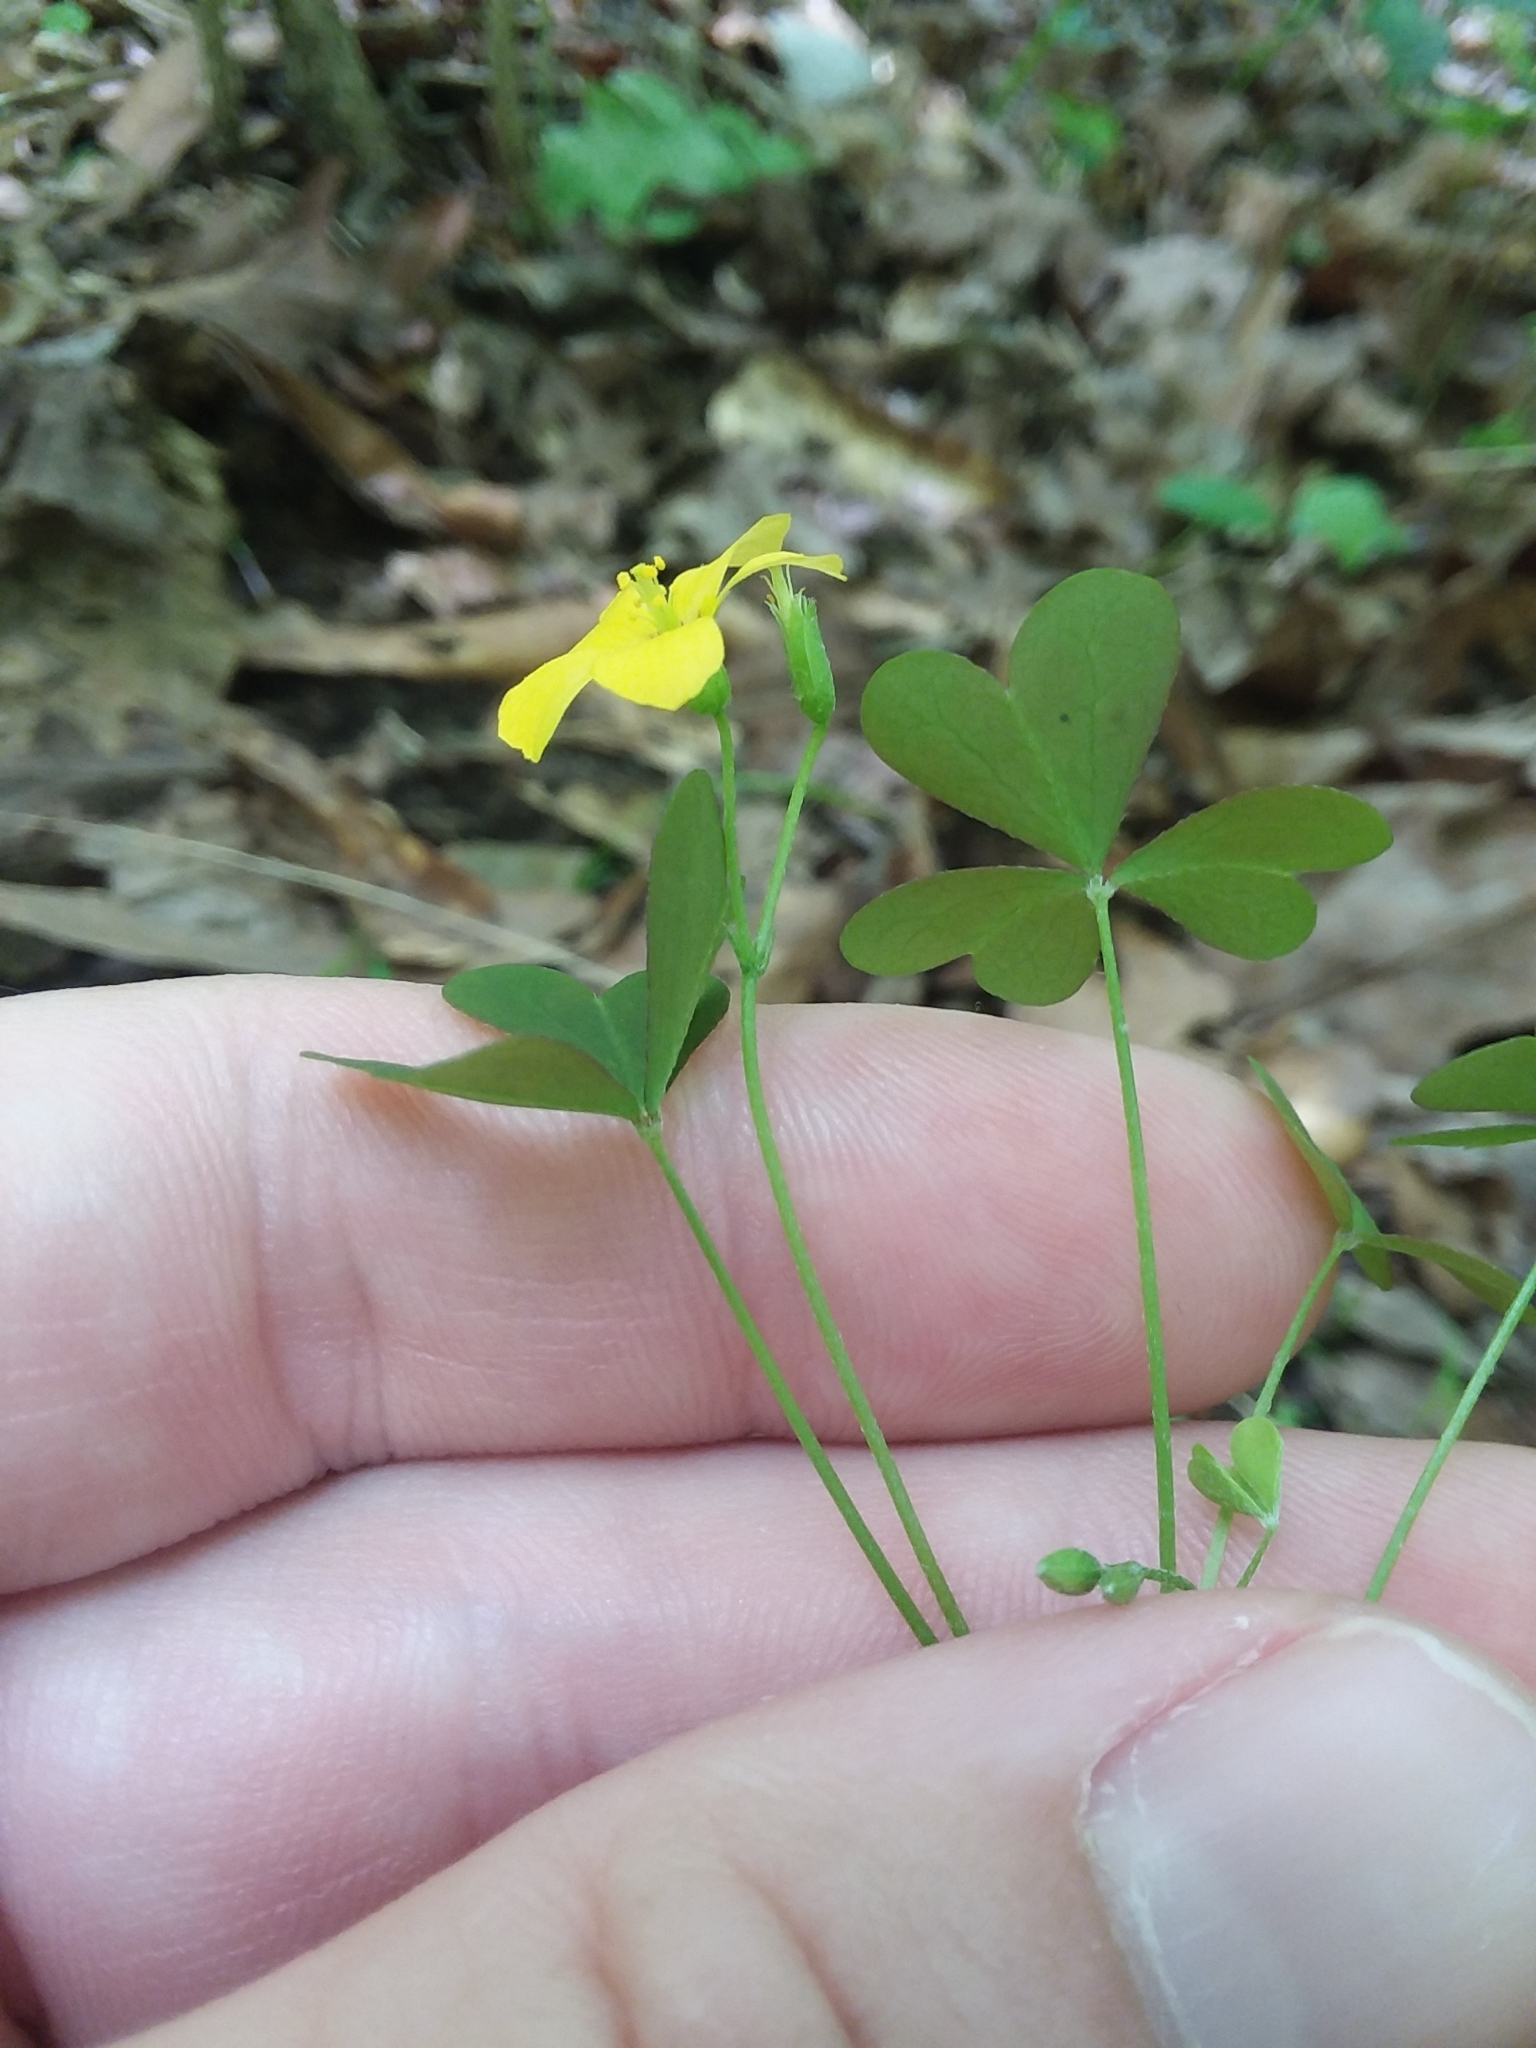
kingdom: Plantae
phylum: Tracheophyta
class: Magnoliopsida
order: Oxalidales
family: Oxalidaceae
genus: Oxalis
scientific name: Oxalis florida
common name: Flowering yellow woodsorrel
